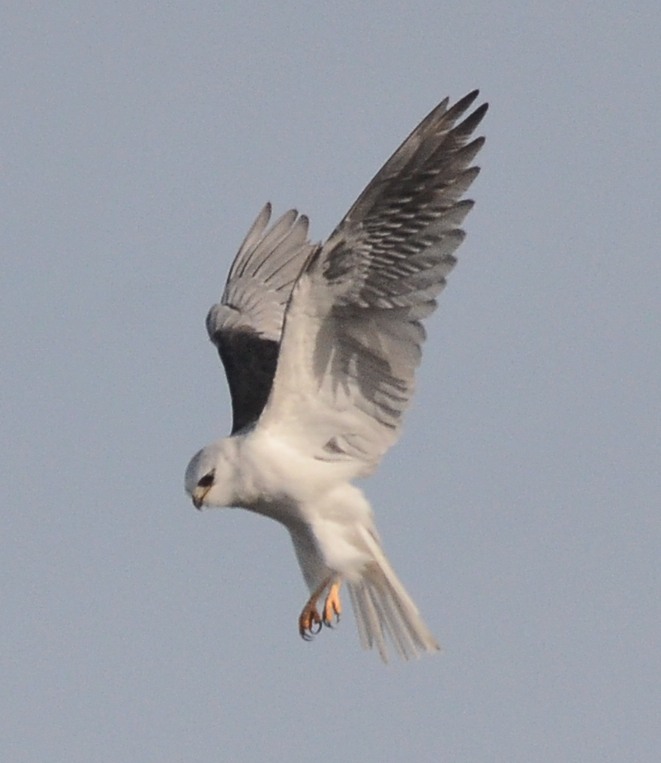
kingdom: Animalia
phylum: Chordata
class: Aves
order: Accipitriformes
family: Accipitridae
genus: Elanus
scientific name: Elanus leucurus
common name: White-tailed kite
